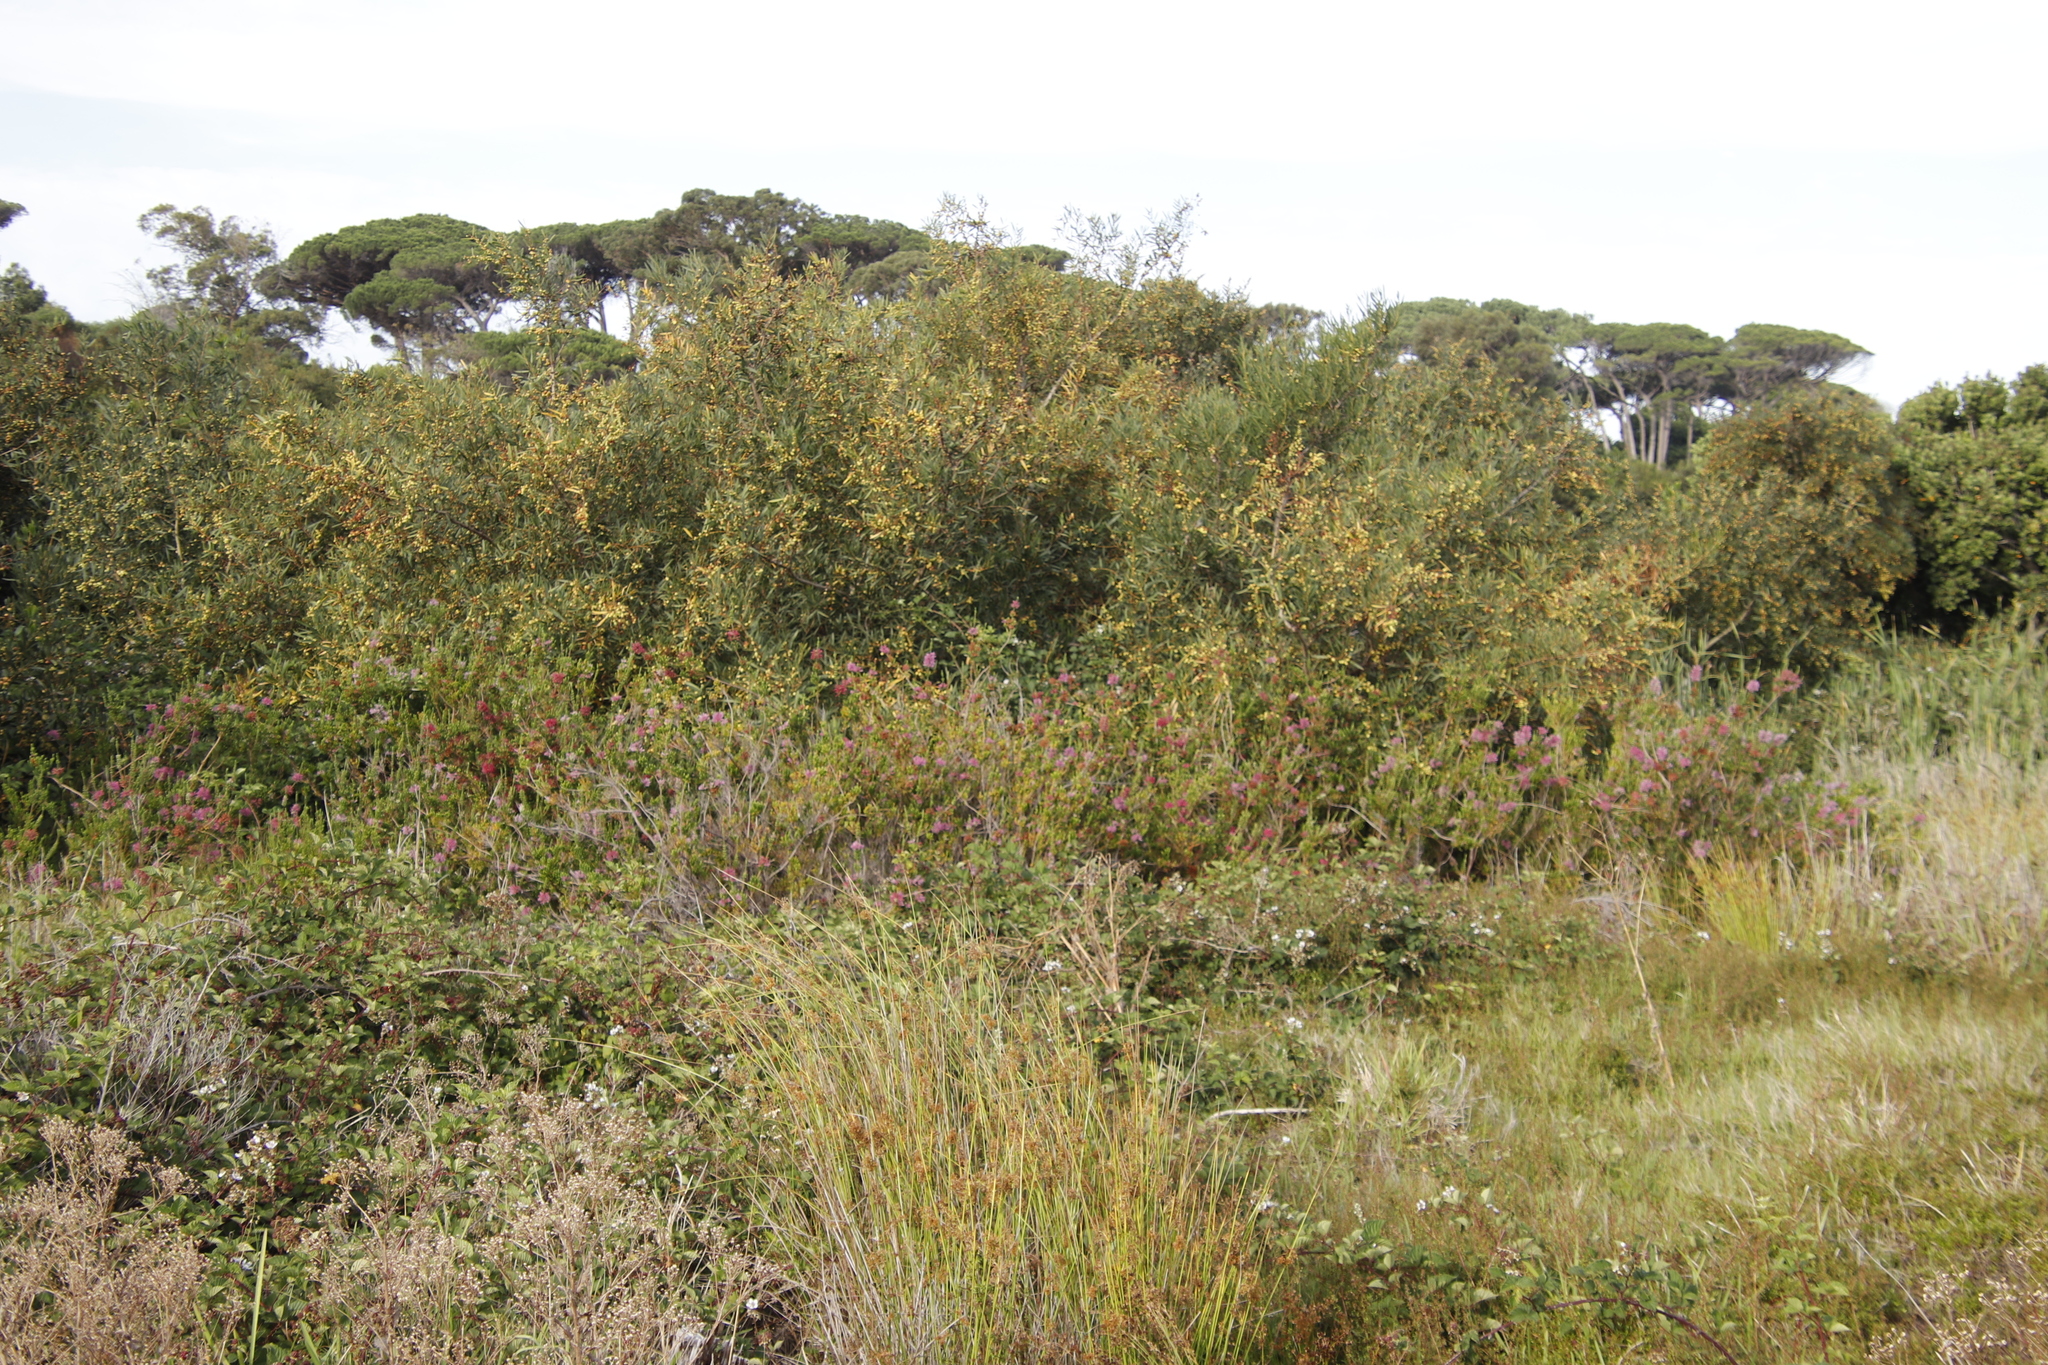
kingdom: Plantae
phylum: Tracheophyta
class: Magnoliopsida
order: Fabales
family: Fabaceae
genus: Acacia
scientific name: Acacia longifolia
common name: Sydney golden wattle
